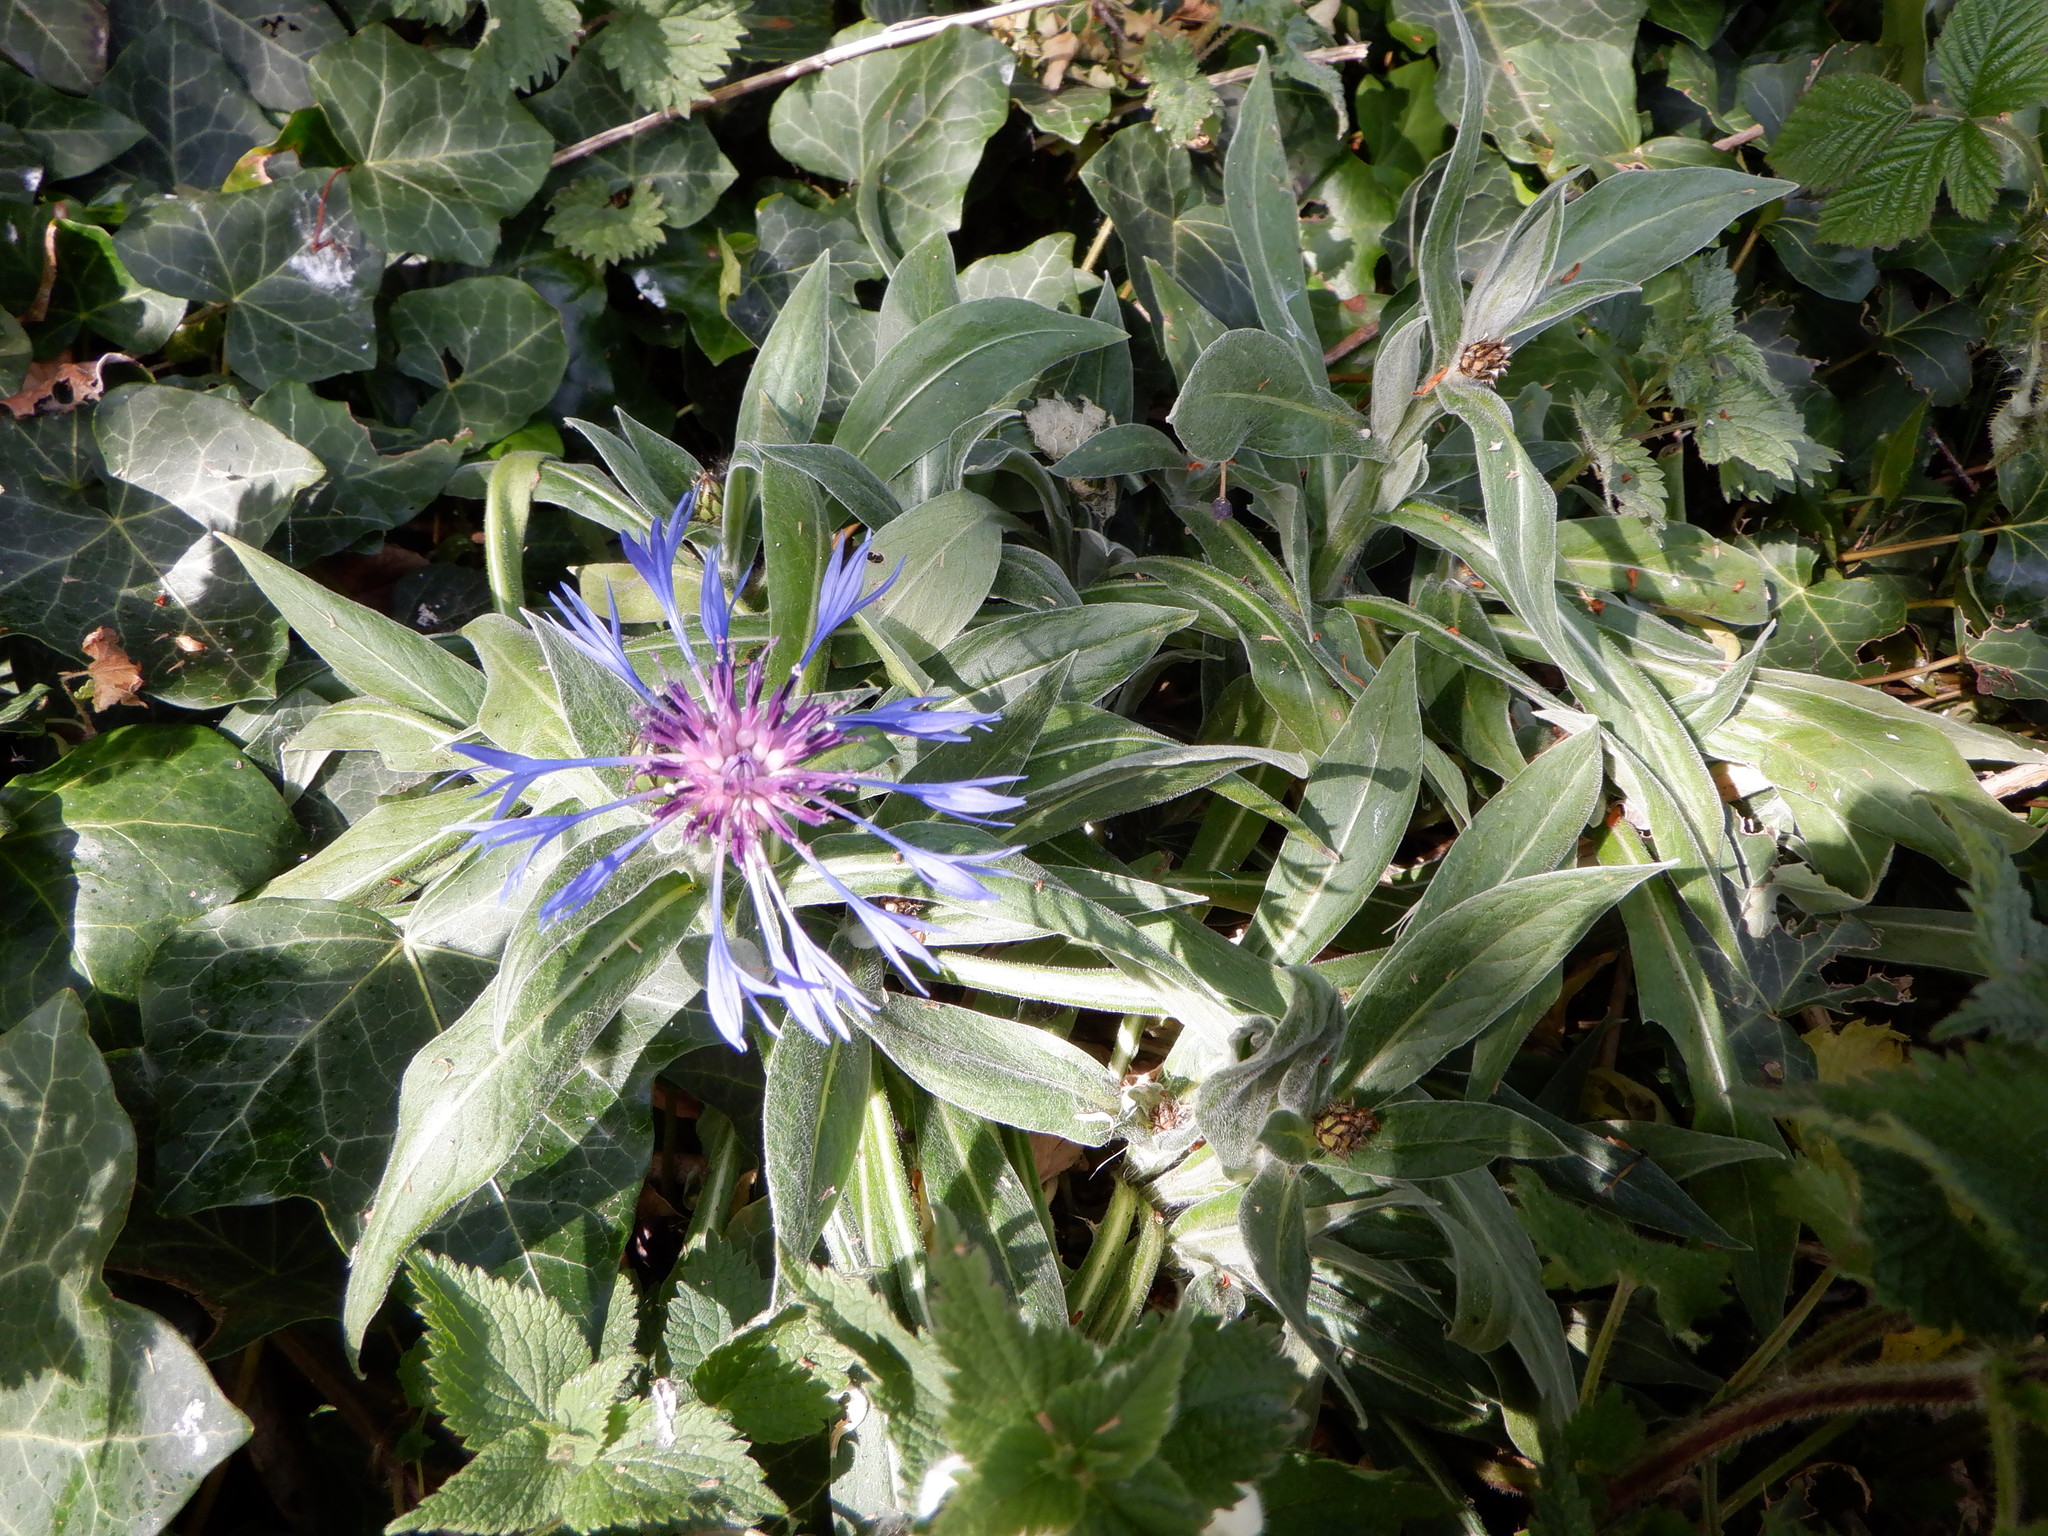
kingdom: Plantae
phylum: Tracheophyta
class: Magnoliopsida
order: Asterales
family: Asteraceae
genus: Centaurea
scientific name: Centaurea montana
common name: Perennial cornflower
